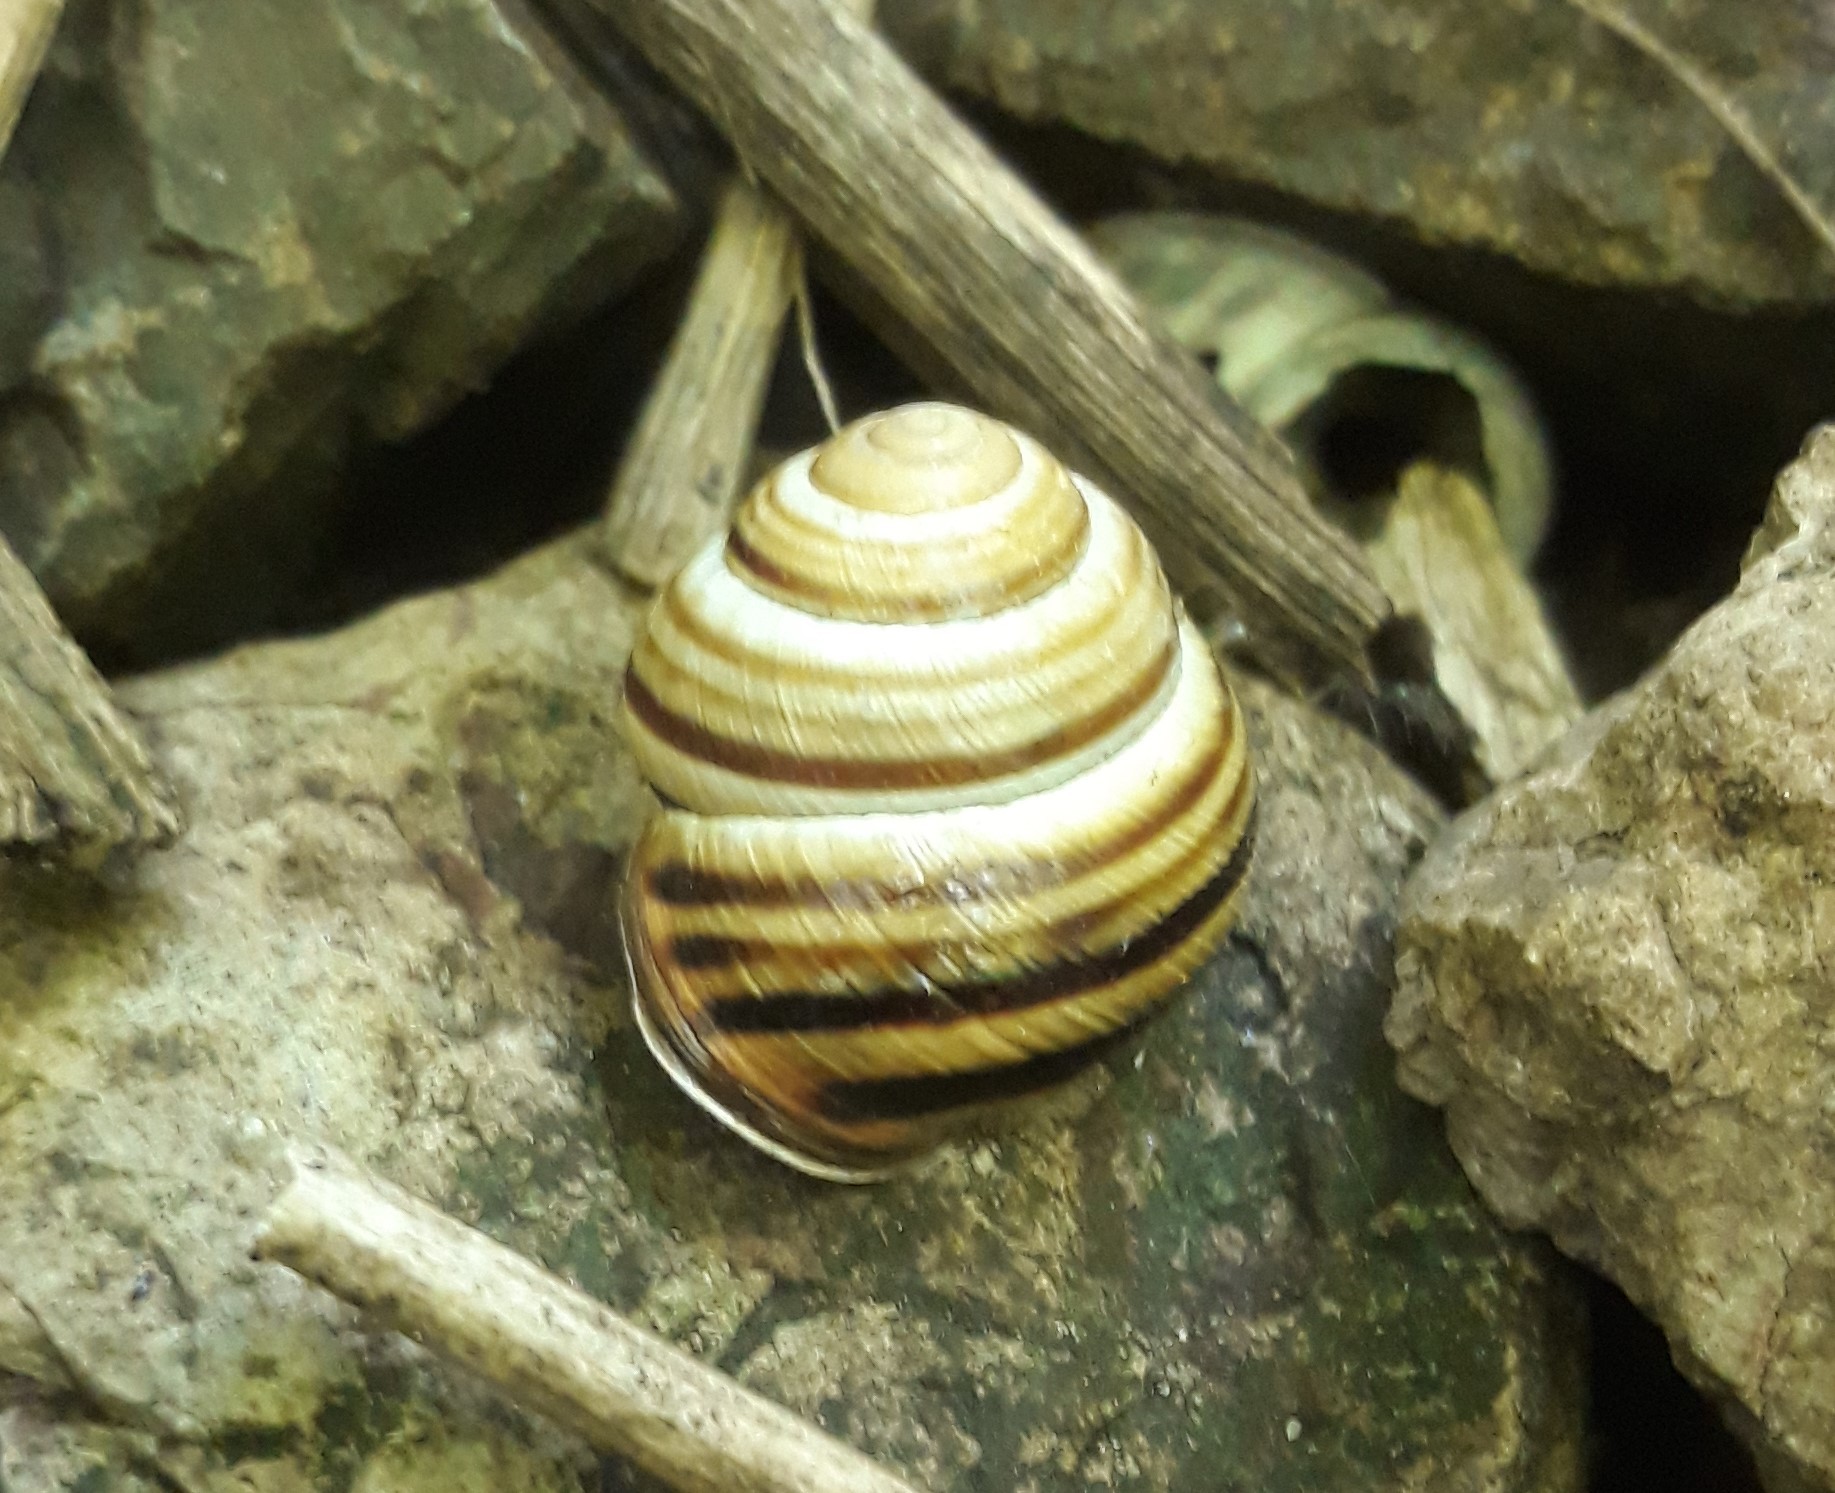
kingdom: Animalia
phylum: Mollusca
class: Gastropoda
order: Stylommatophora
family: Helicidae
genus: Caucasotachea
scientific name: Caucasotachea vindobonensis
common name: European helicid land snail
